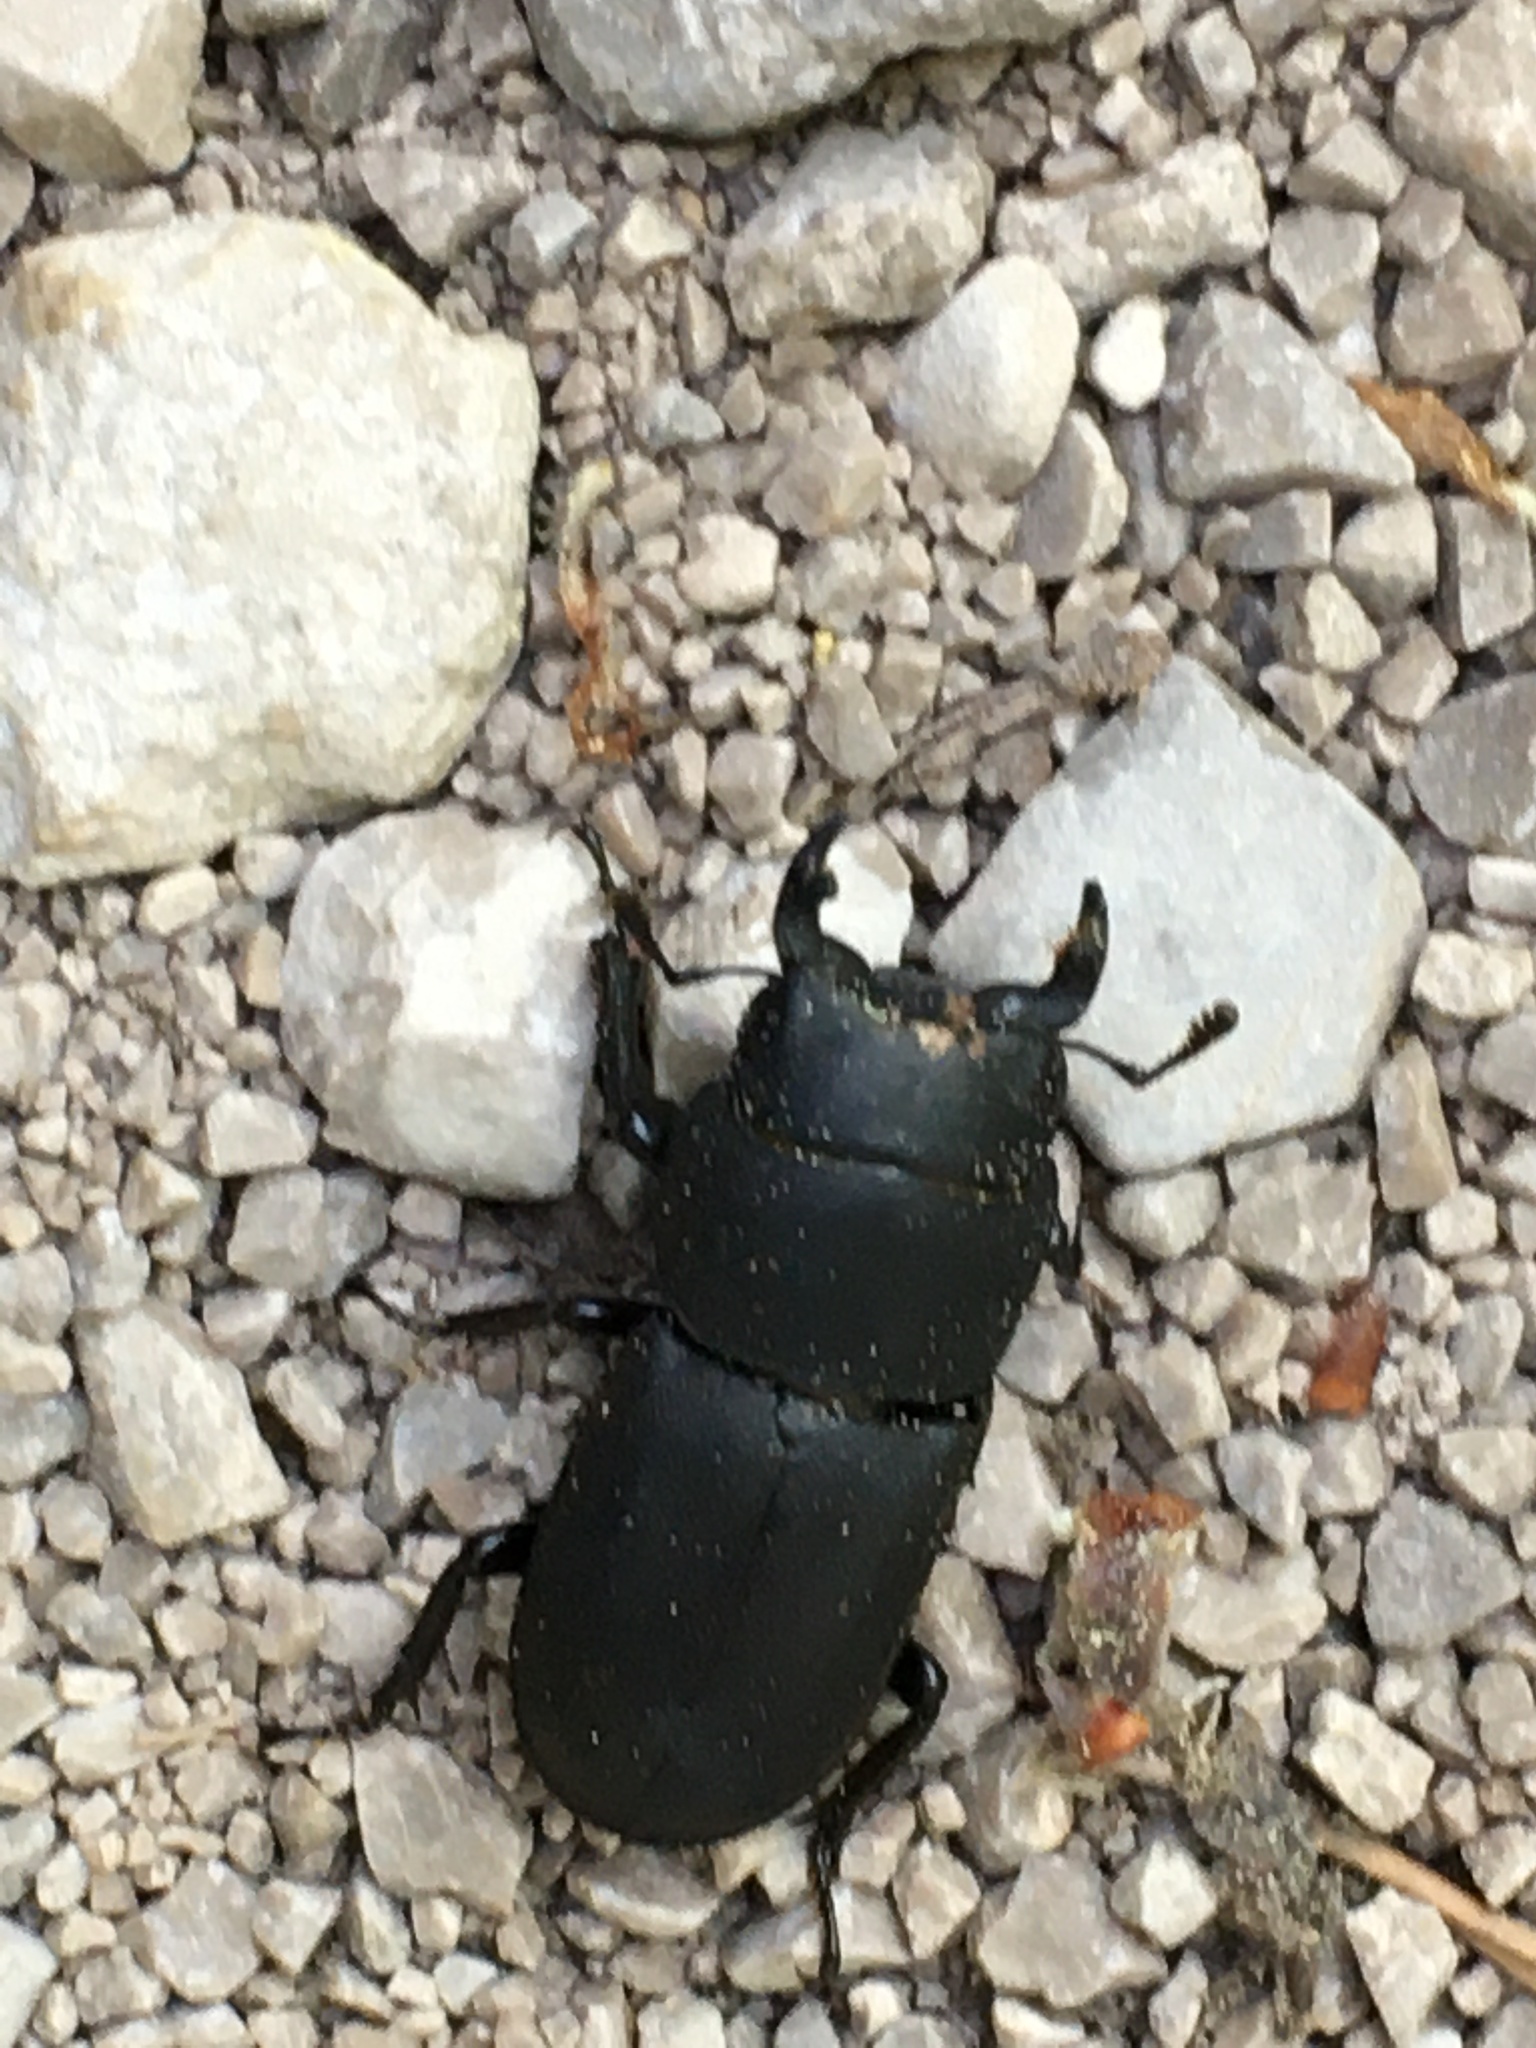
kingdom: Animalia
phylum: Arthropoda
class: Insecta
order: Coleoptera
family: Lucanidae
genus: Dorcus
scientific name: Dorcus parallelipipedus
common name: Lesser stag beetle
